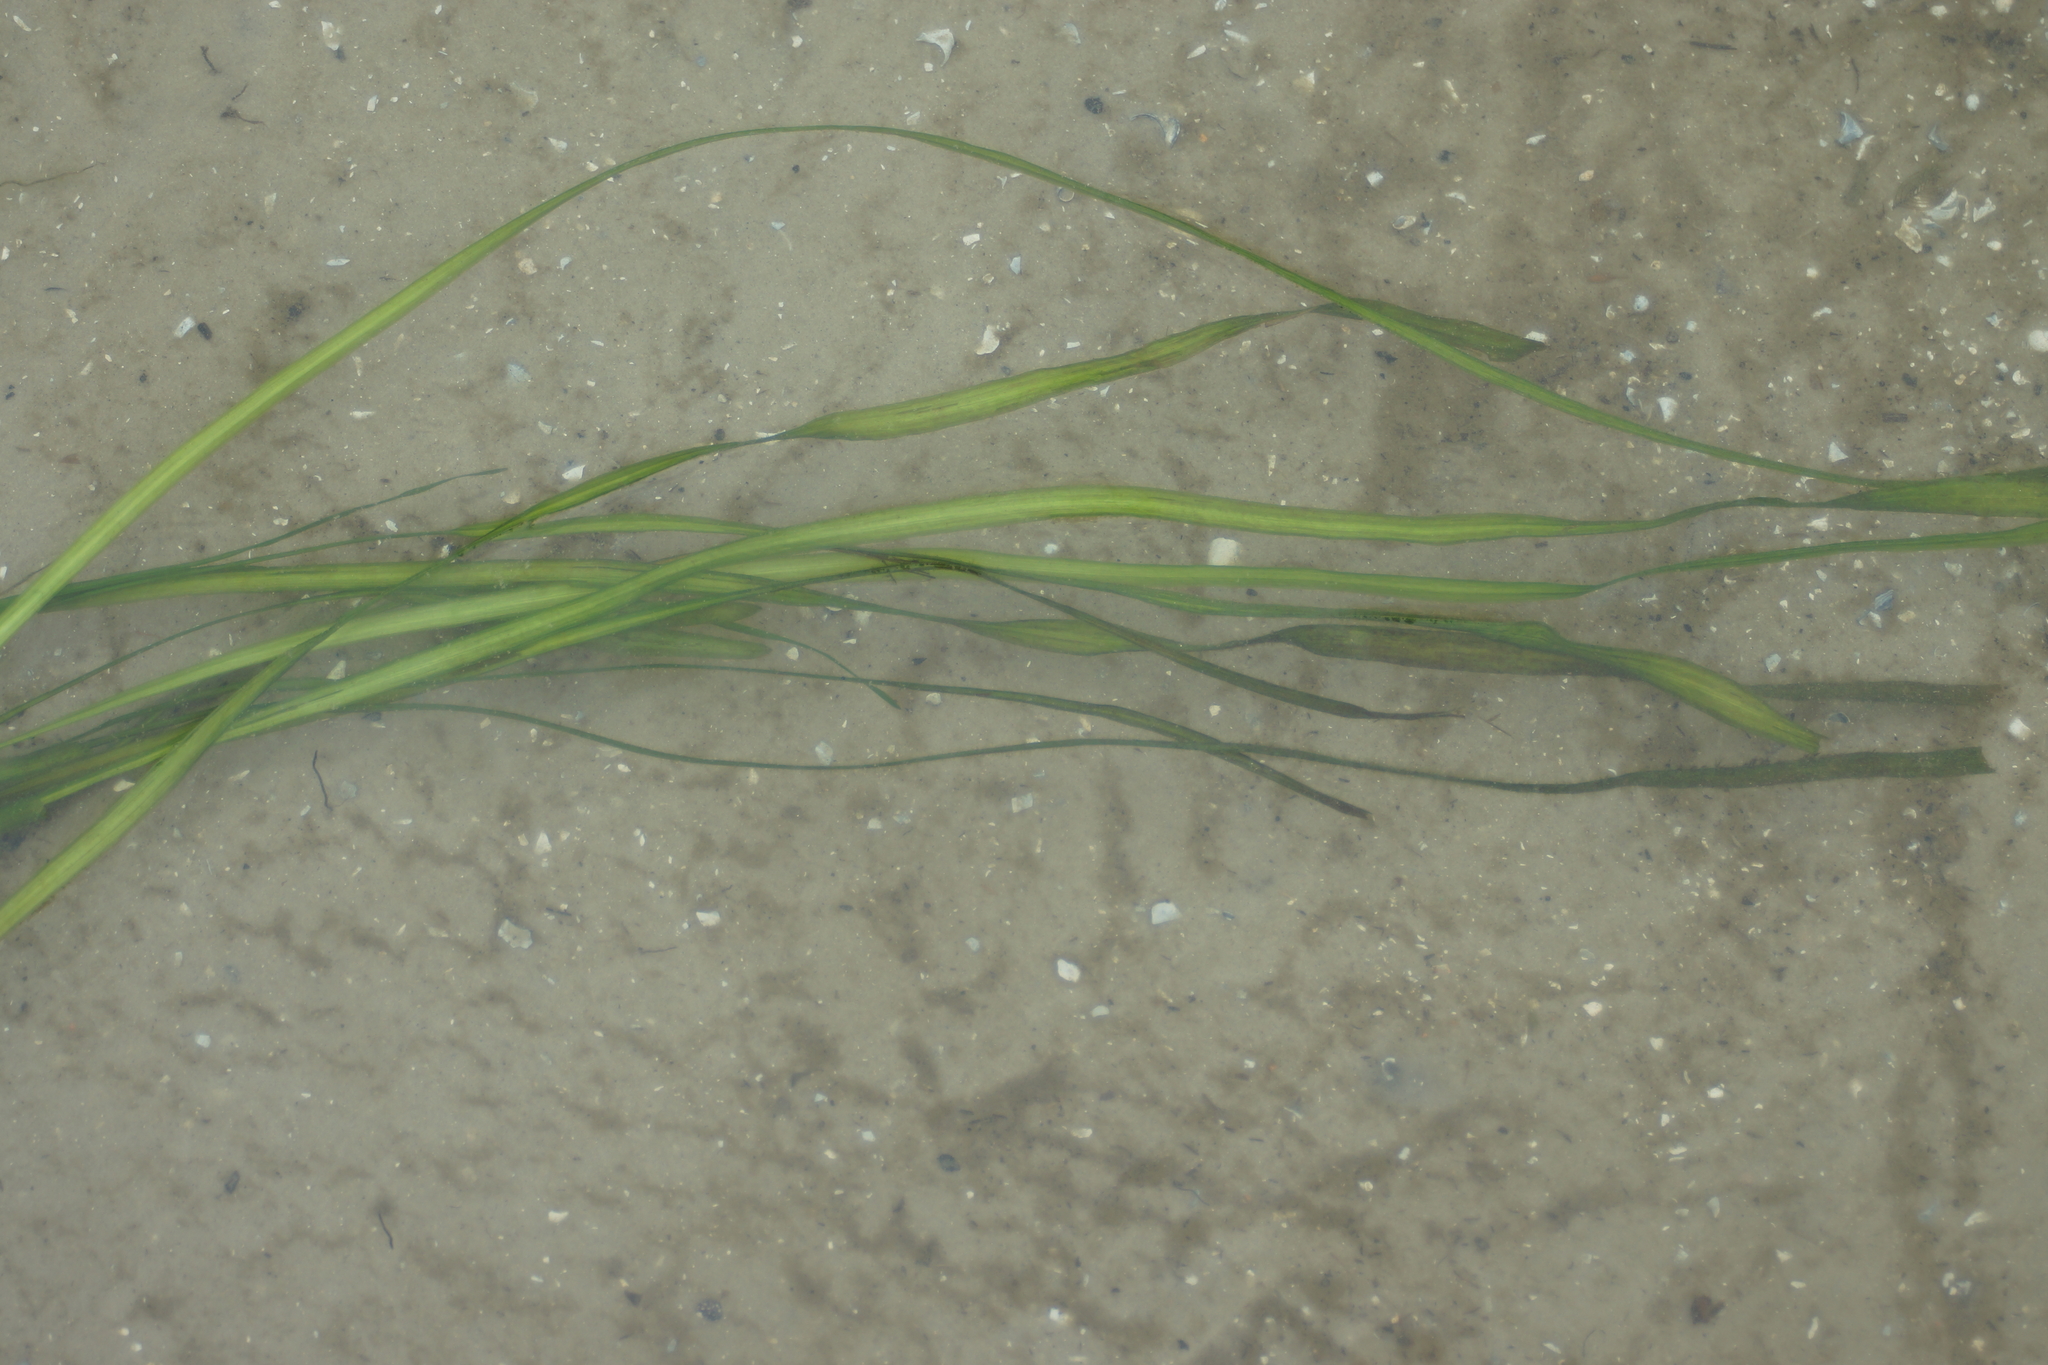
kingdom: Plantae
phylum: Tracheophyta
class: Liliopsida
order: Alismatales
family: Hydrocharitaceae
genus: Vallisneria
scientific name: Vallisneria spiralis
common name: Tapegrass
